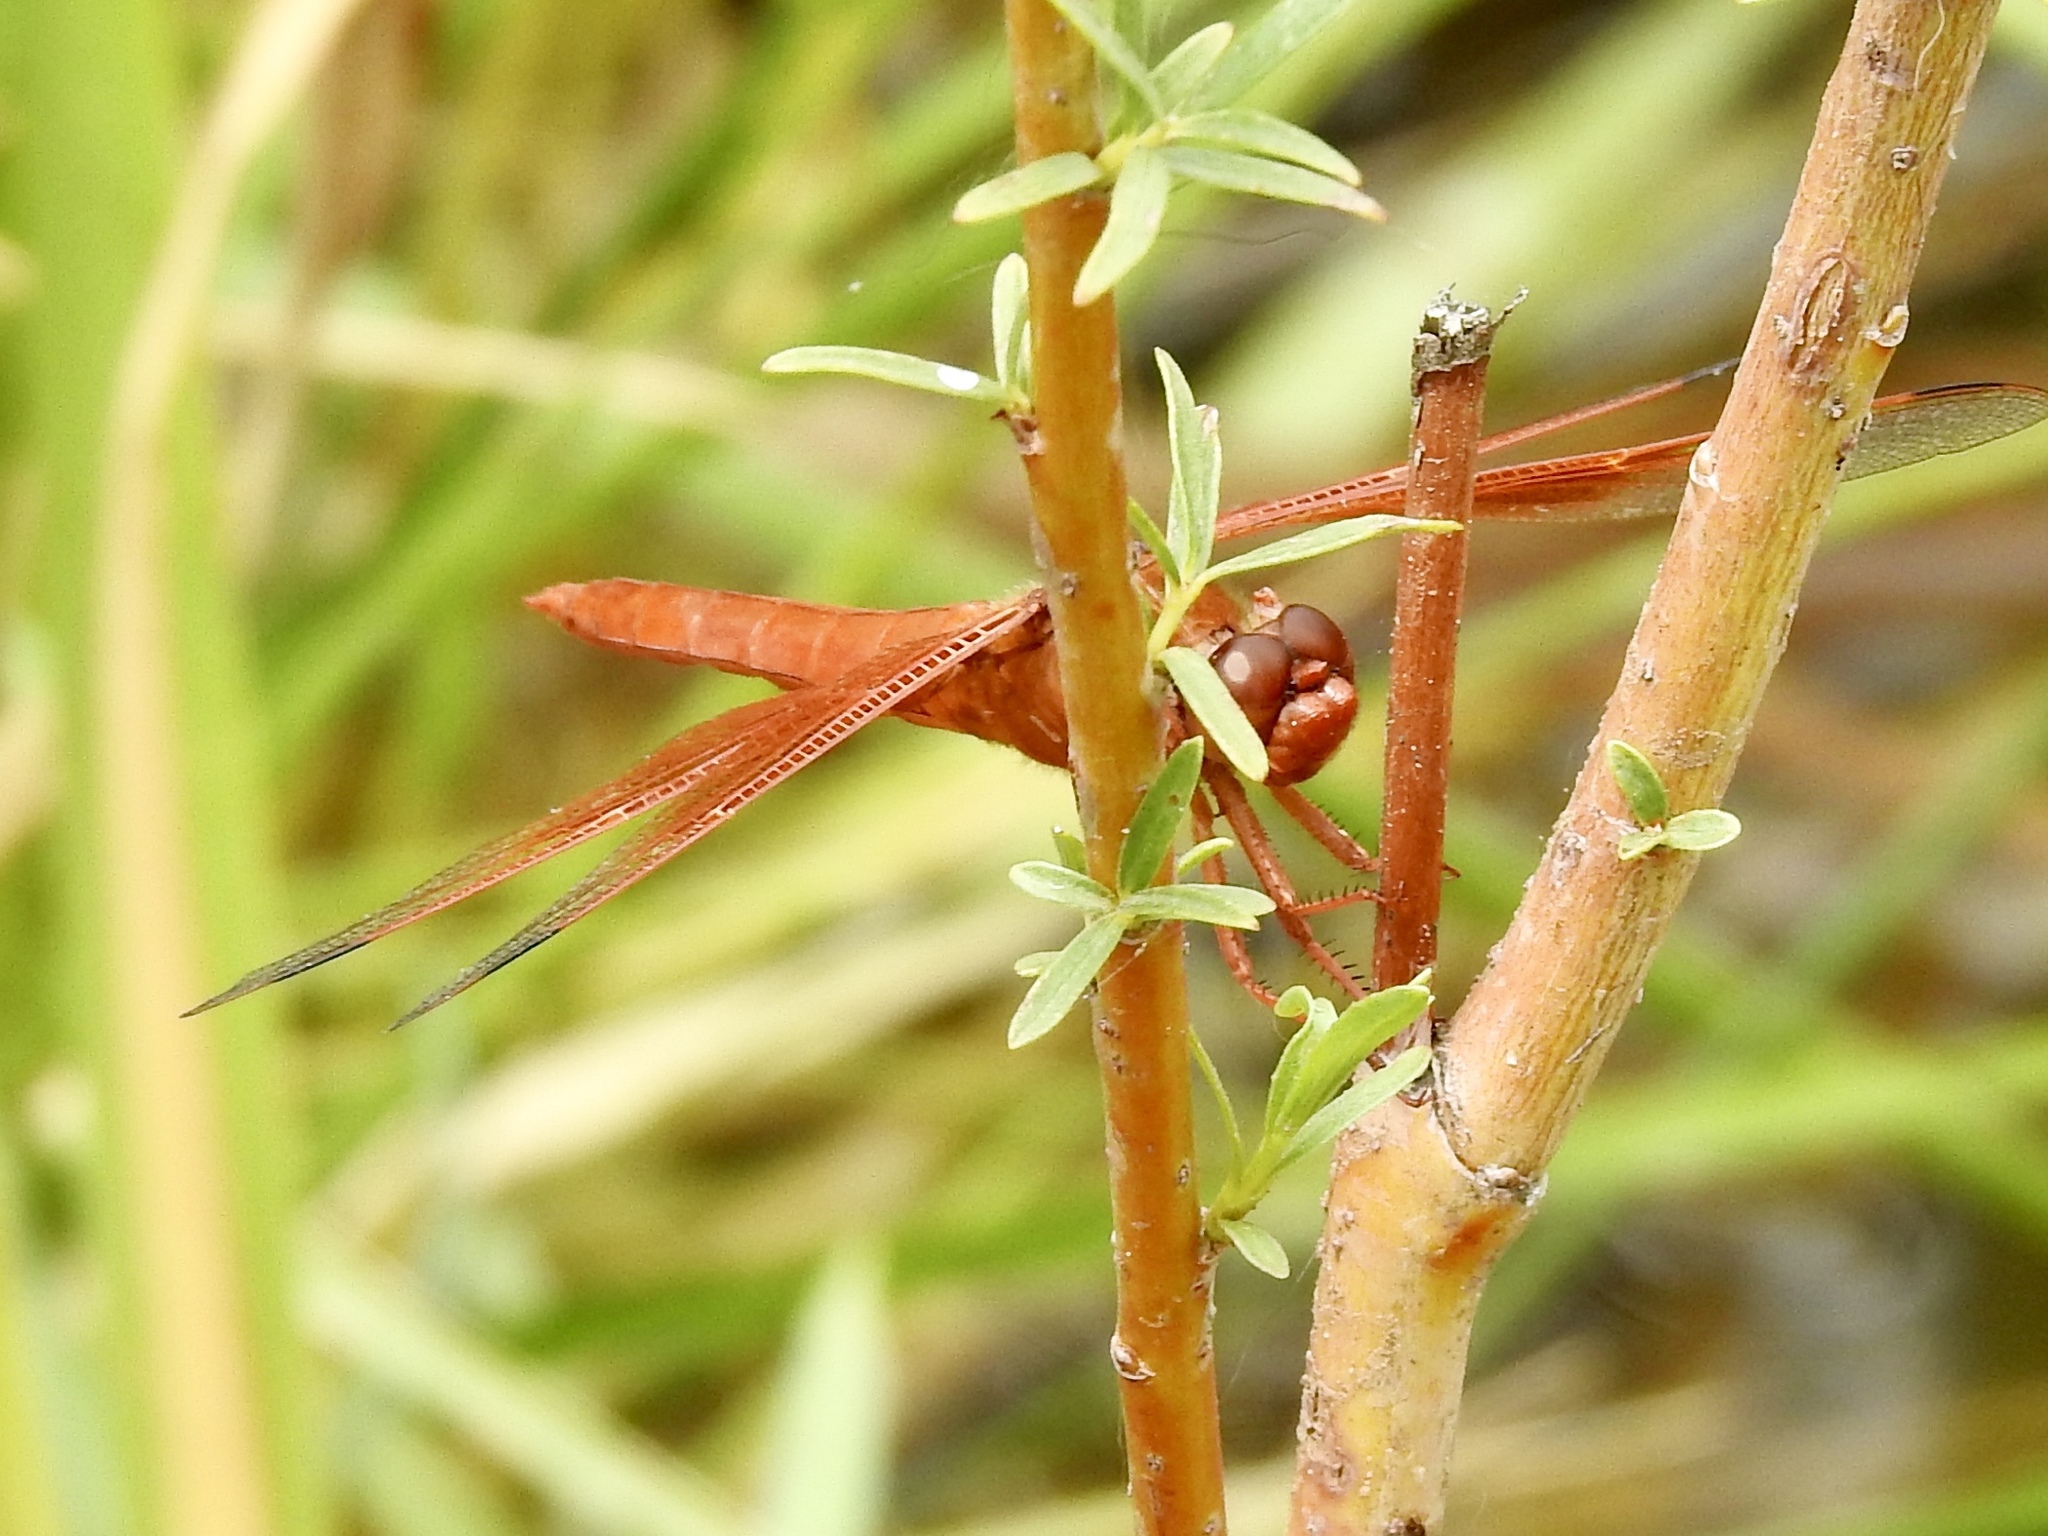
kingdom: Animalia
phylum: Arthropoda
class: Insecta
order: Odonata
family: Libellulidae
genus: Libellula
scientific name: Libellula saturata
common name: Flame skimmer
